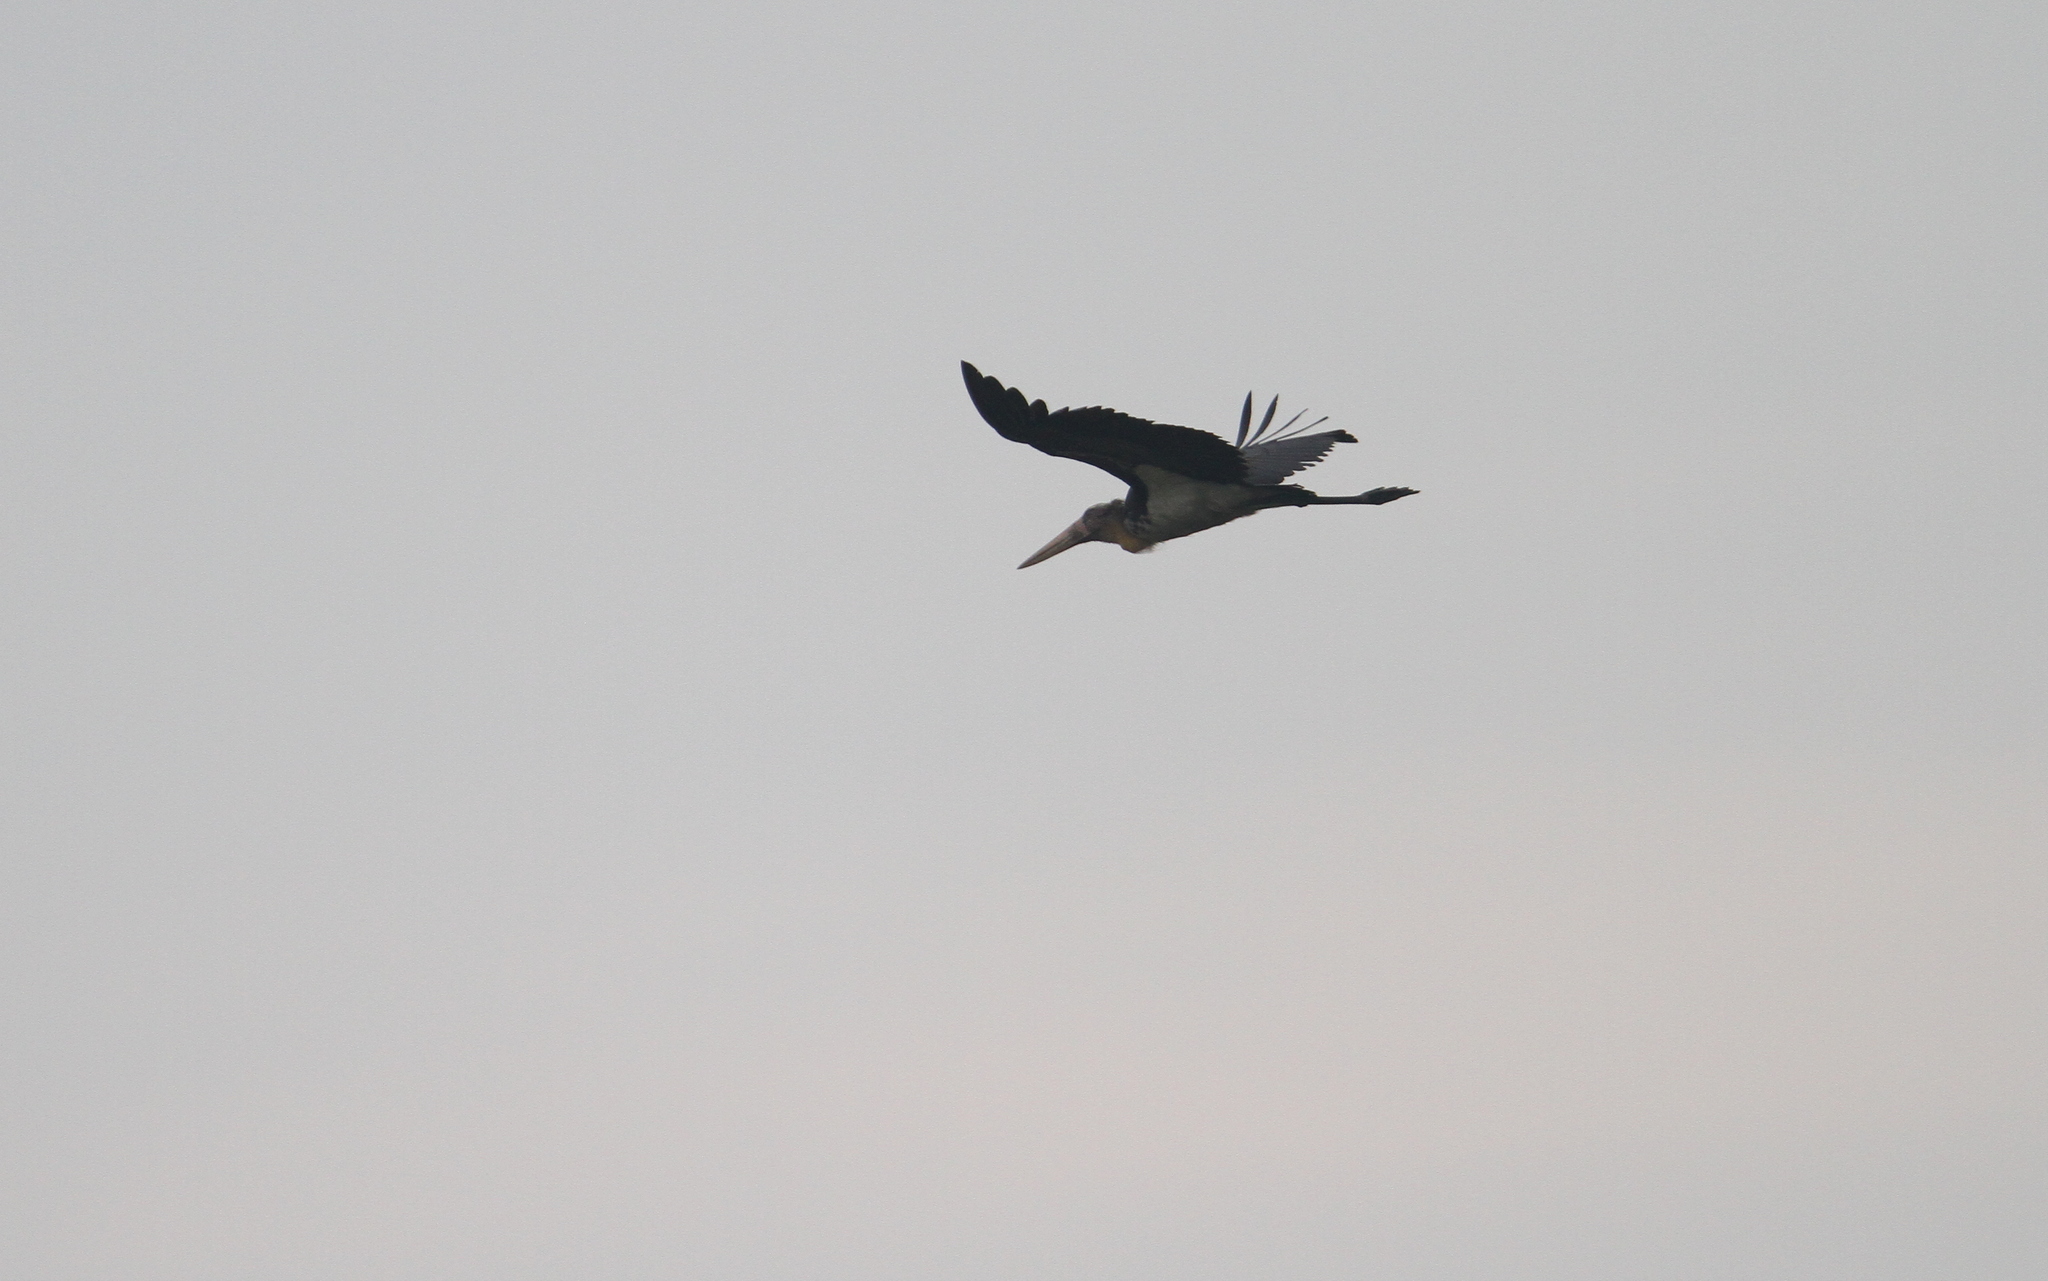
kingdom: Animalia
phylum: Chordata
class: Aves
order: Ciconiiformes
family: Ciconiidae
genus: Leptoptilos
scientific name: Leptoptilos javanicus
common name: Lesser adjutant
